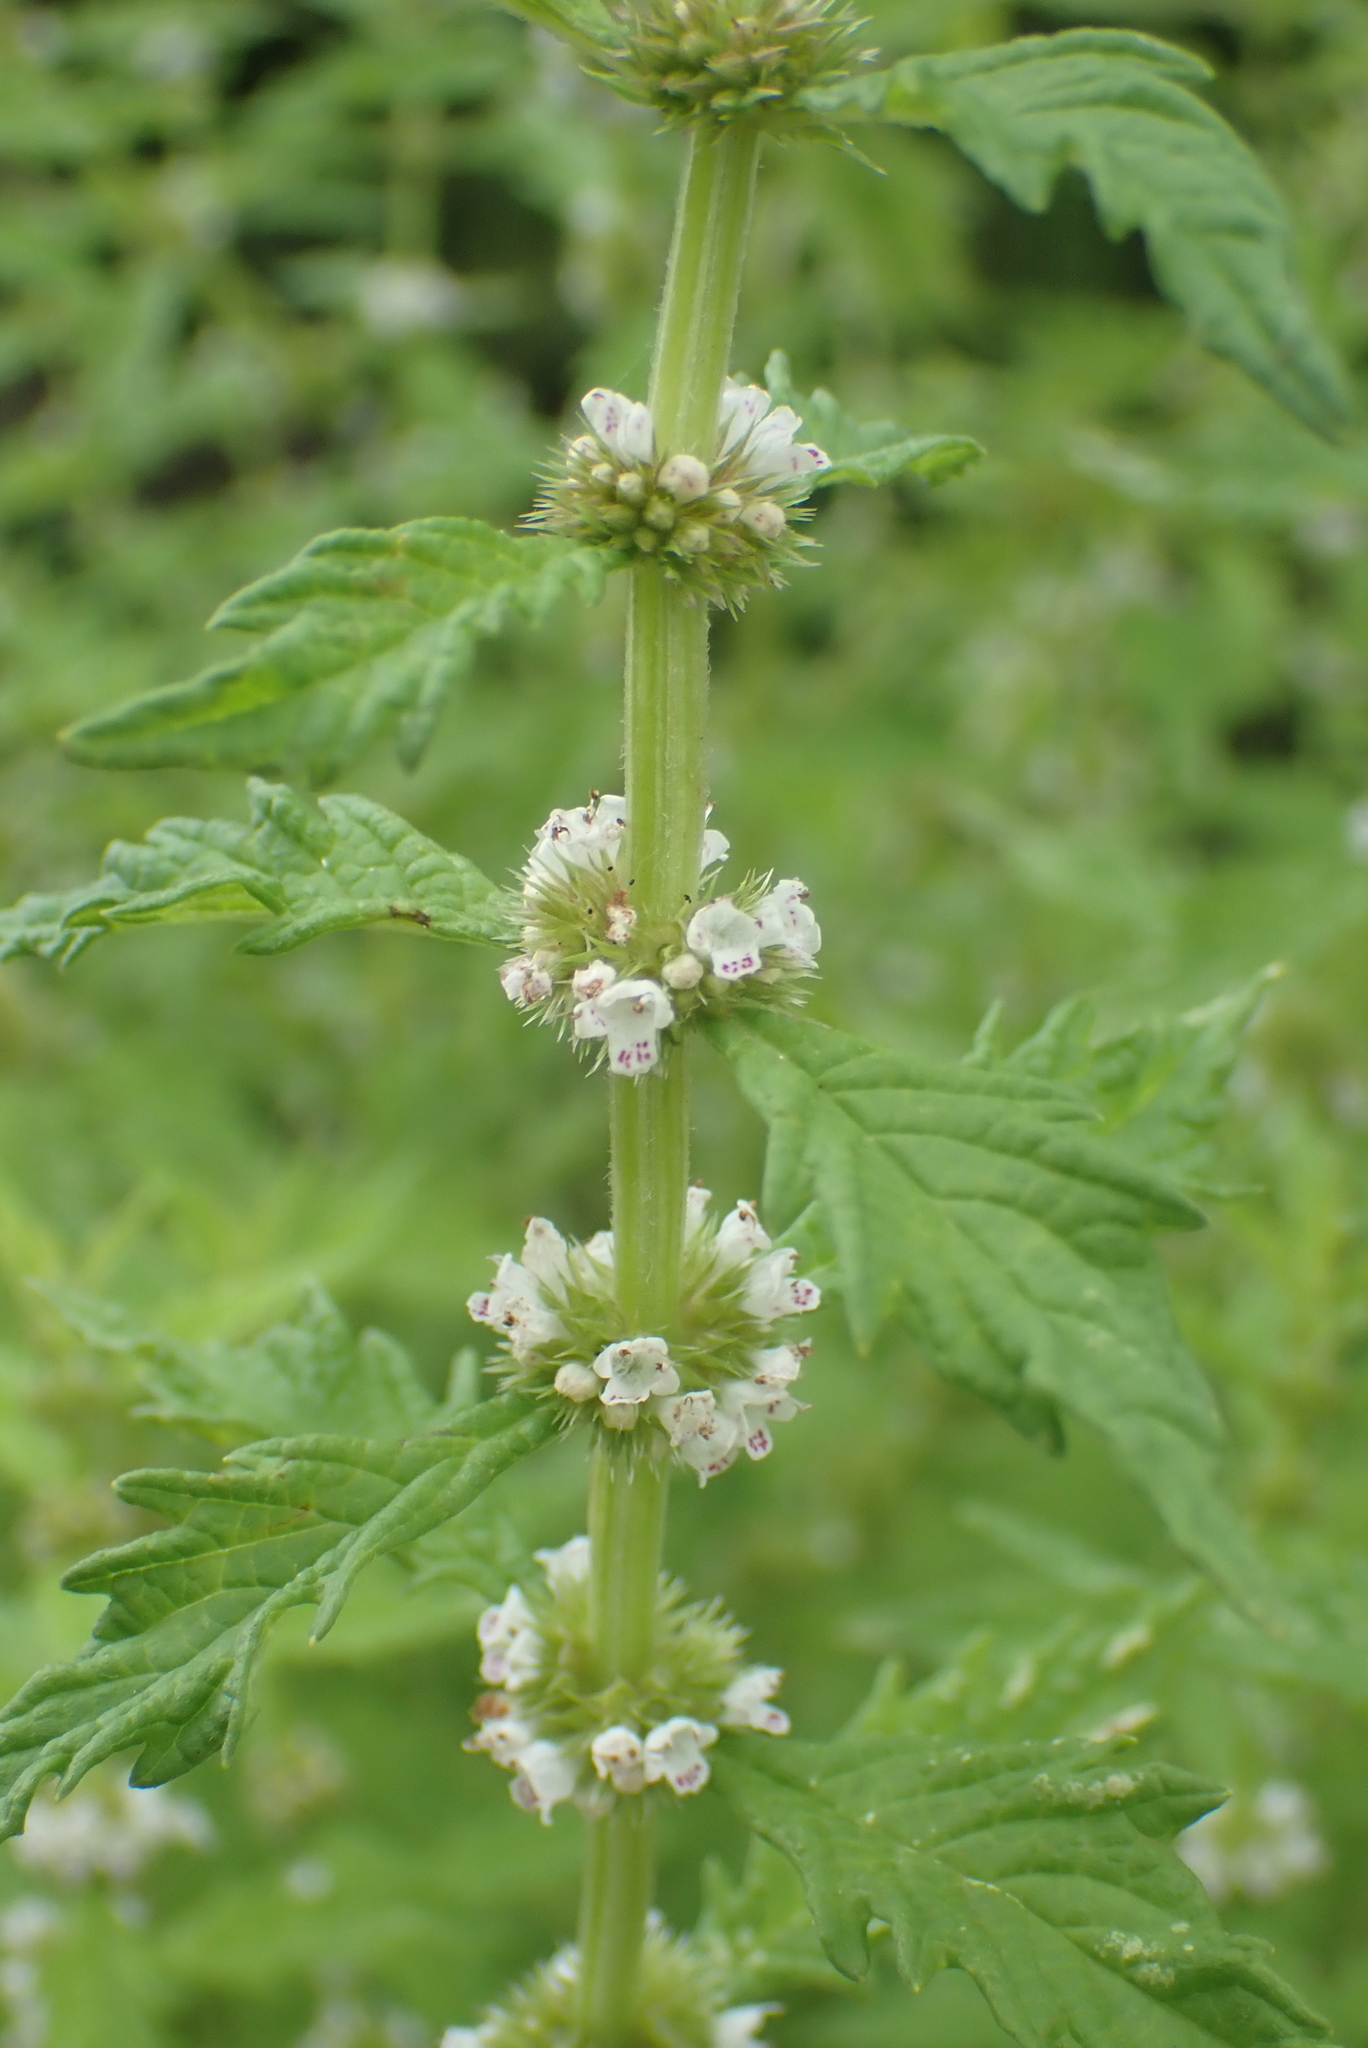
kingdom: Plantae
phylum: Tracheophyta
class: Magnoliopsida
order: Lamiales
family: Lamiaceae
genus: Lycopus
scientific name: Lycopus europaeus
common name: European bugleweed
